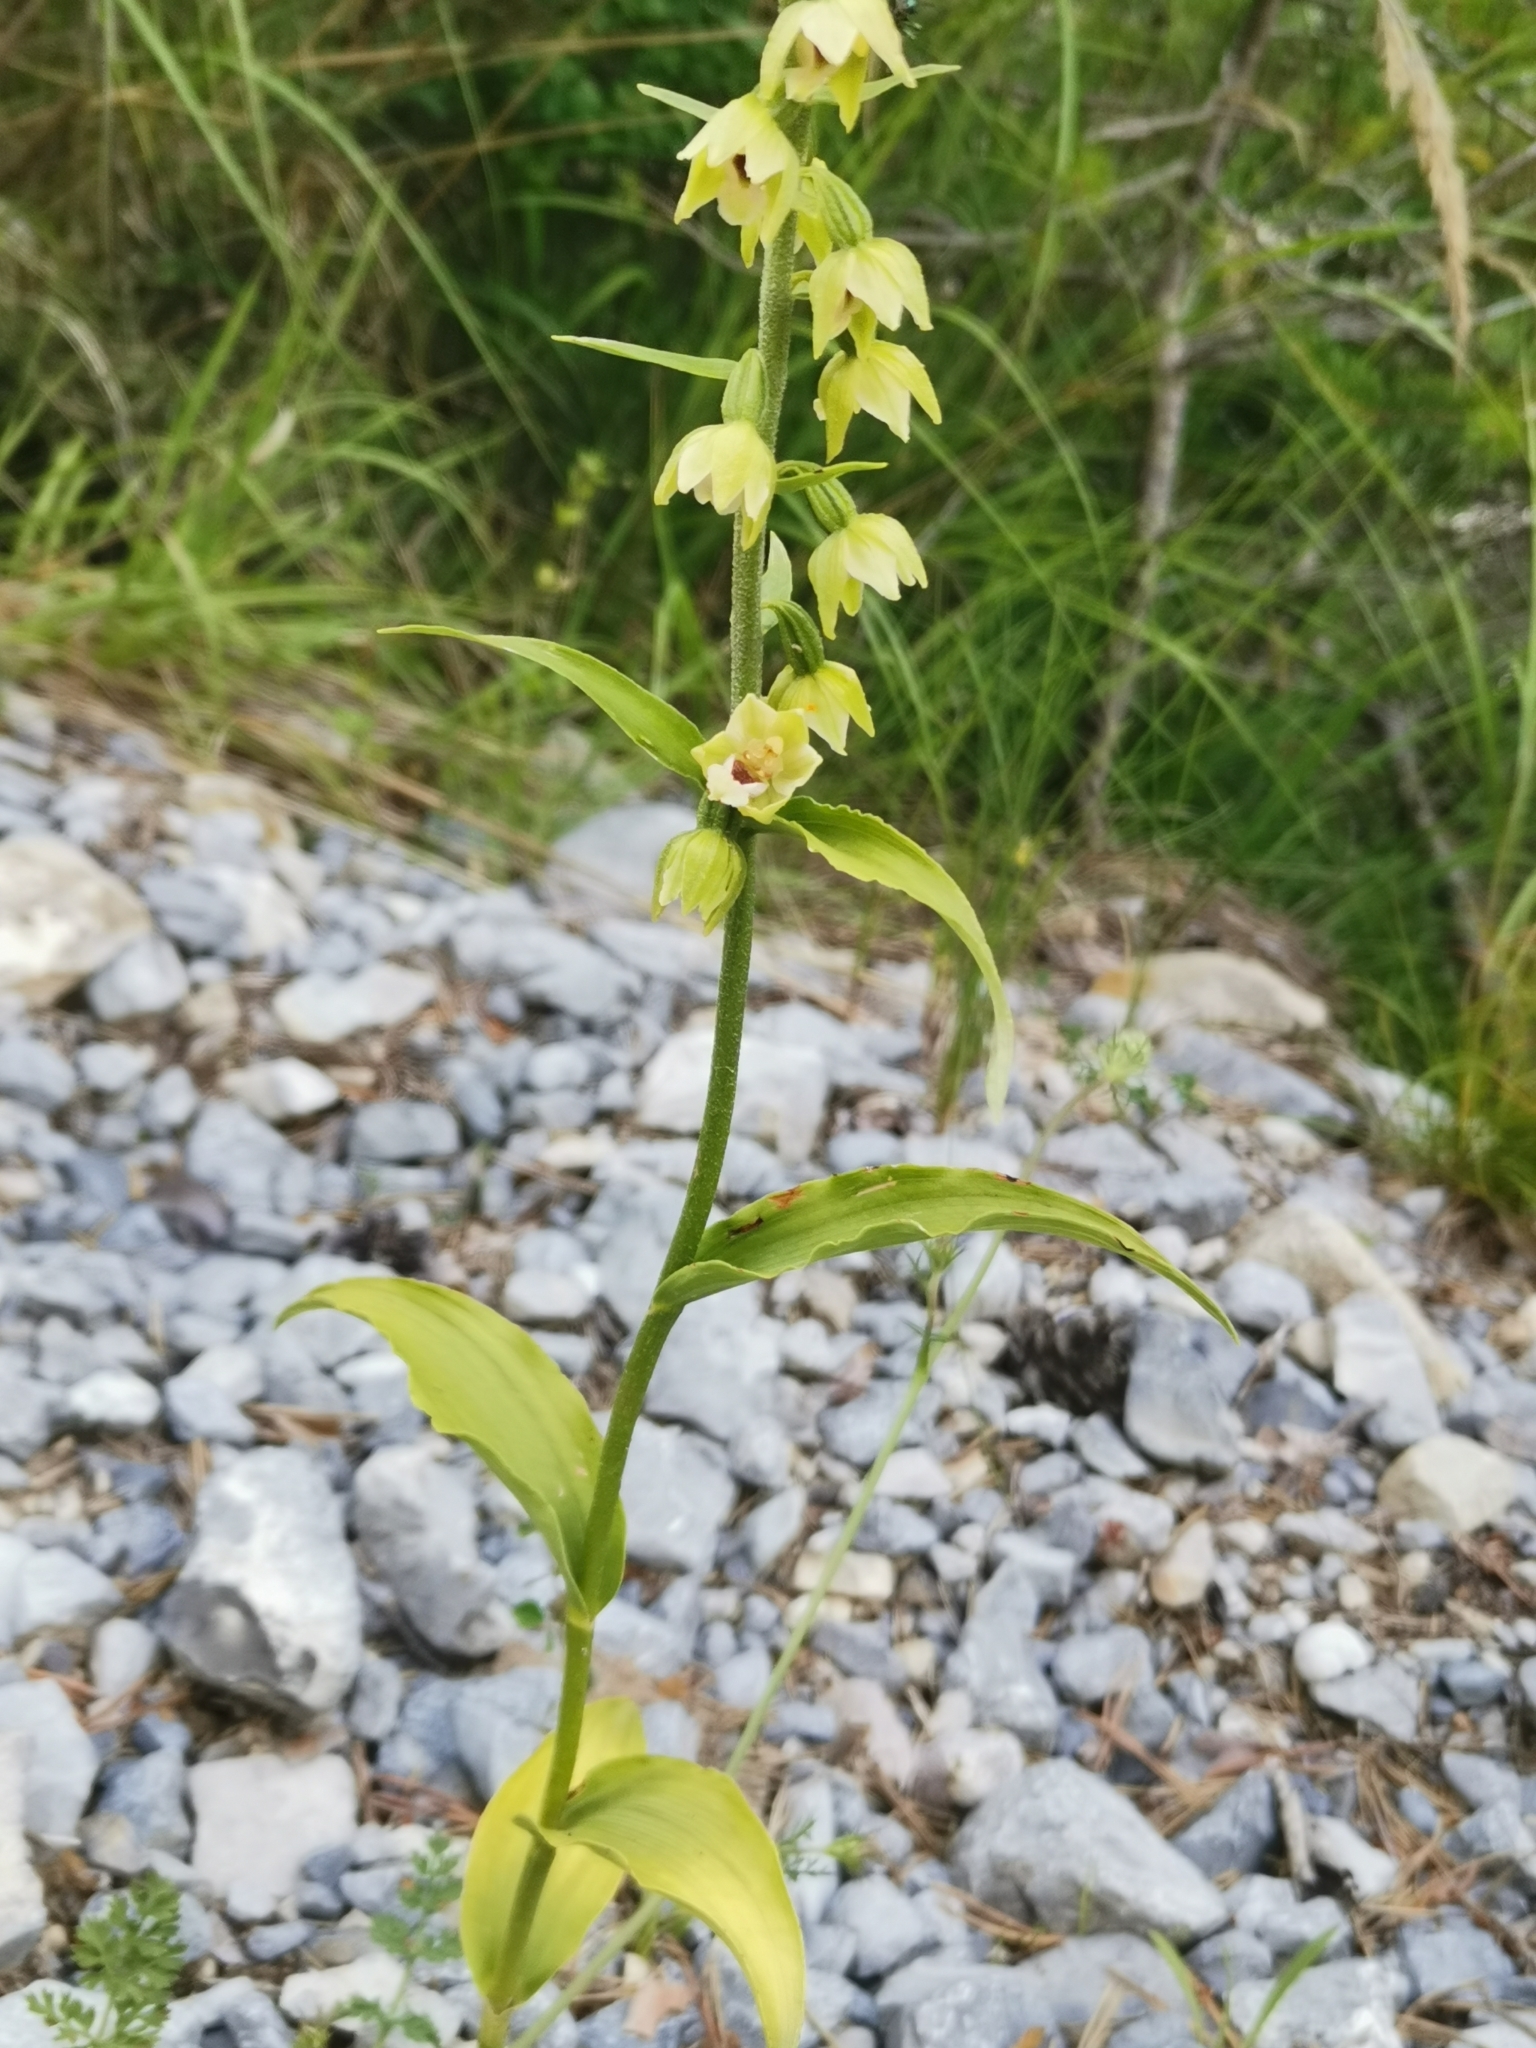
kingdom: Plantae
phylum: Tracheophyta
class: Liliopsida
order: Asparagales
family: Orchidaceae
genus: Epipactis
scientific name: Epipactis muelleri
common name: Mueller's epipactis
